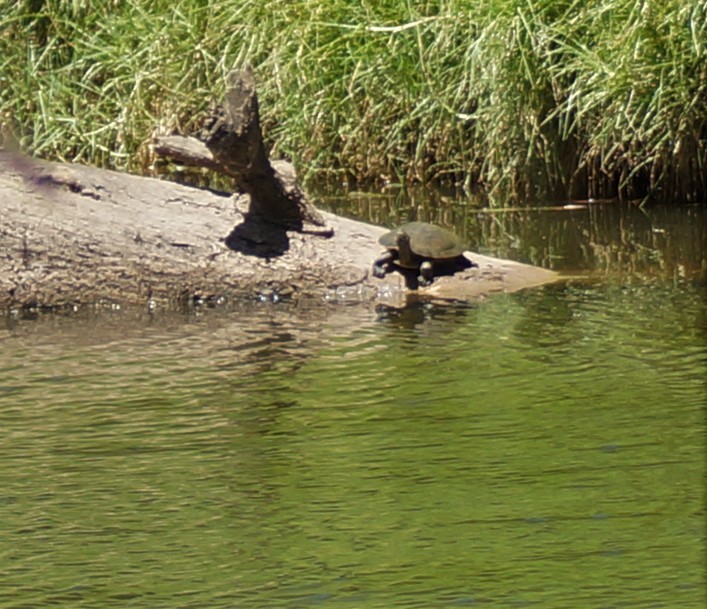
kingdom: Animalia
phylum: Chordata
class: Testudines
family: Chelidae
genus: Emydura
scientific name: Emydura macquarii
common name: Murray river turtle
